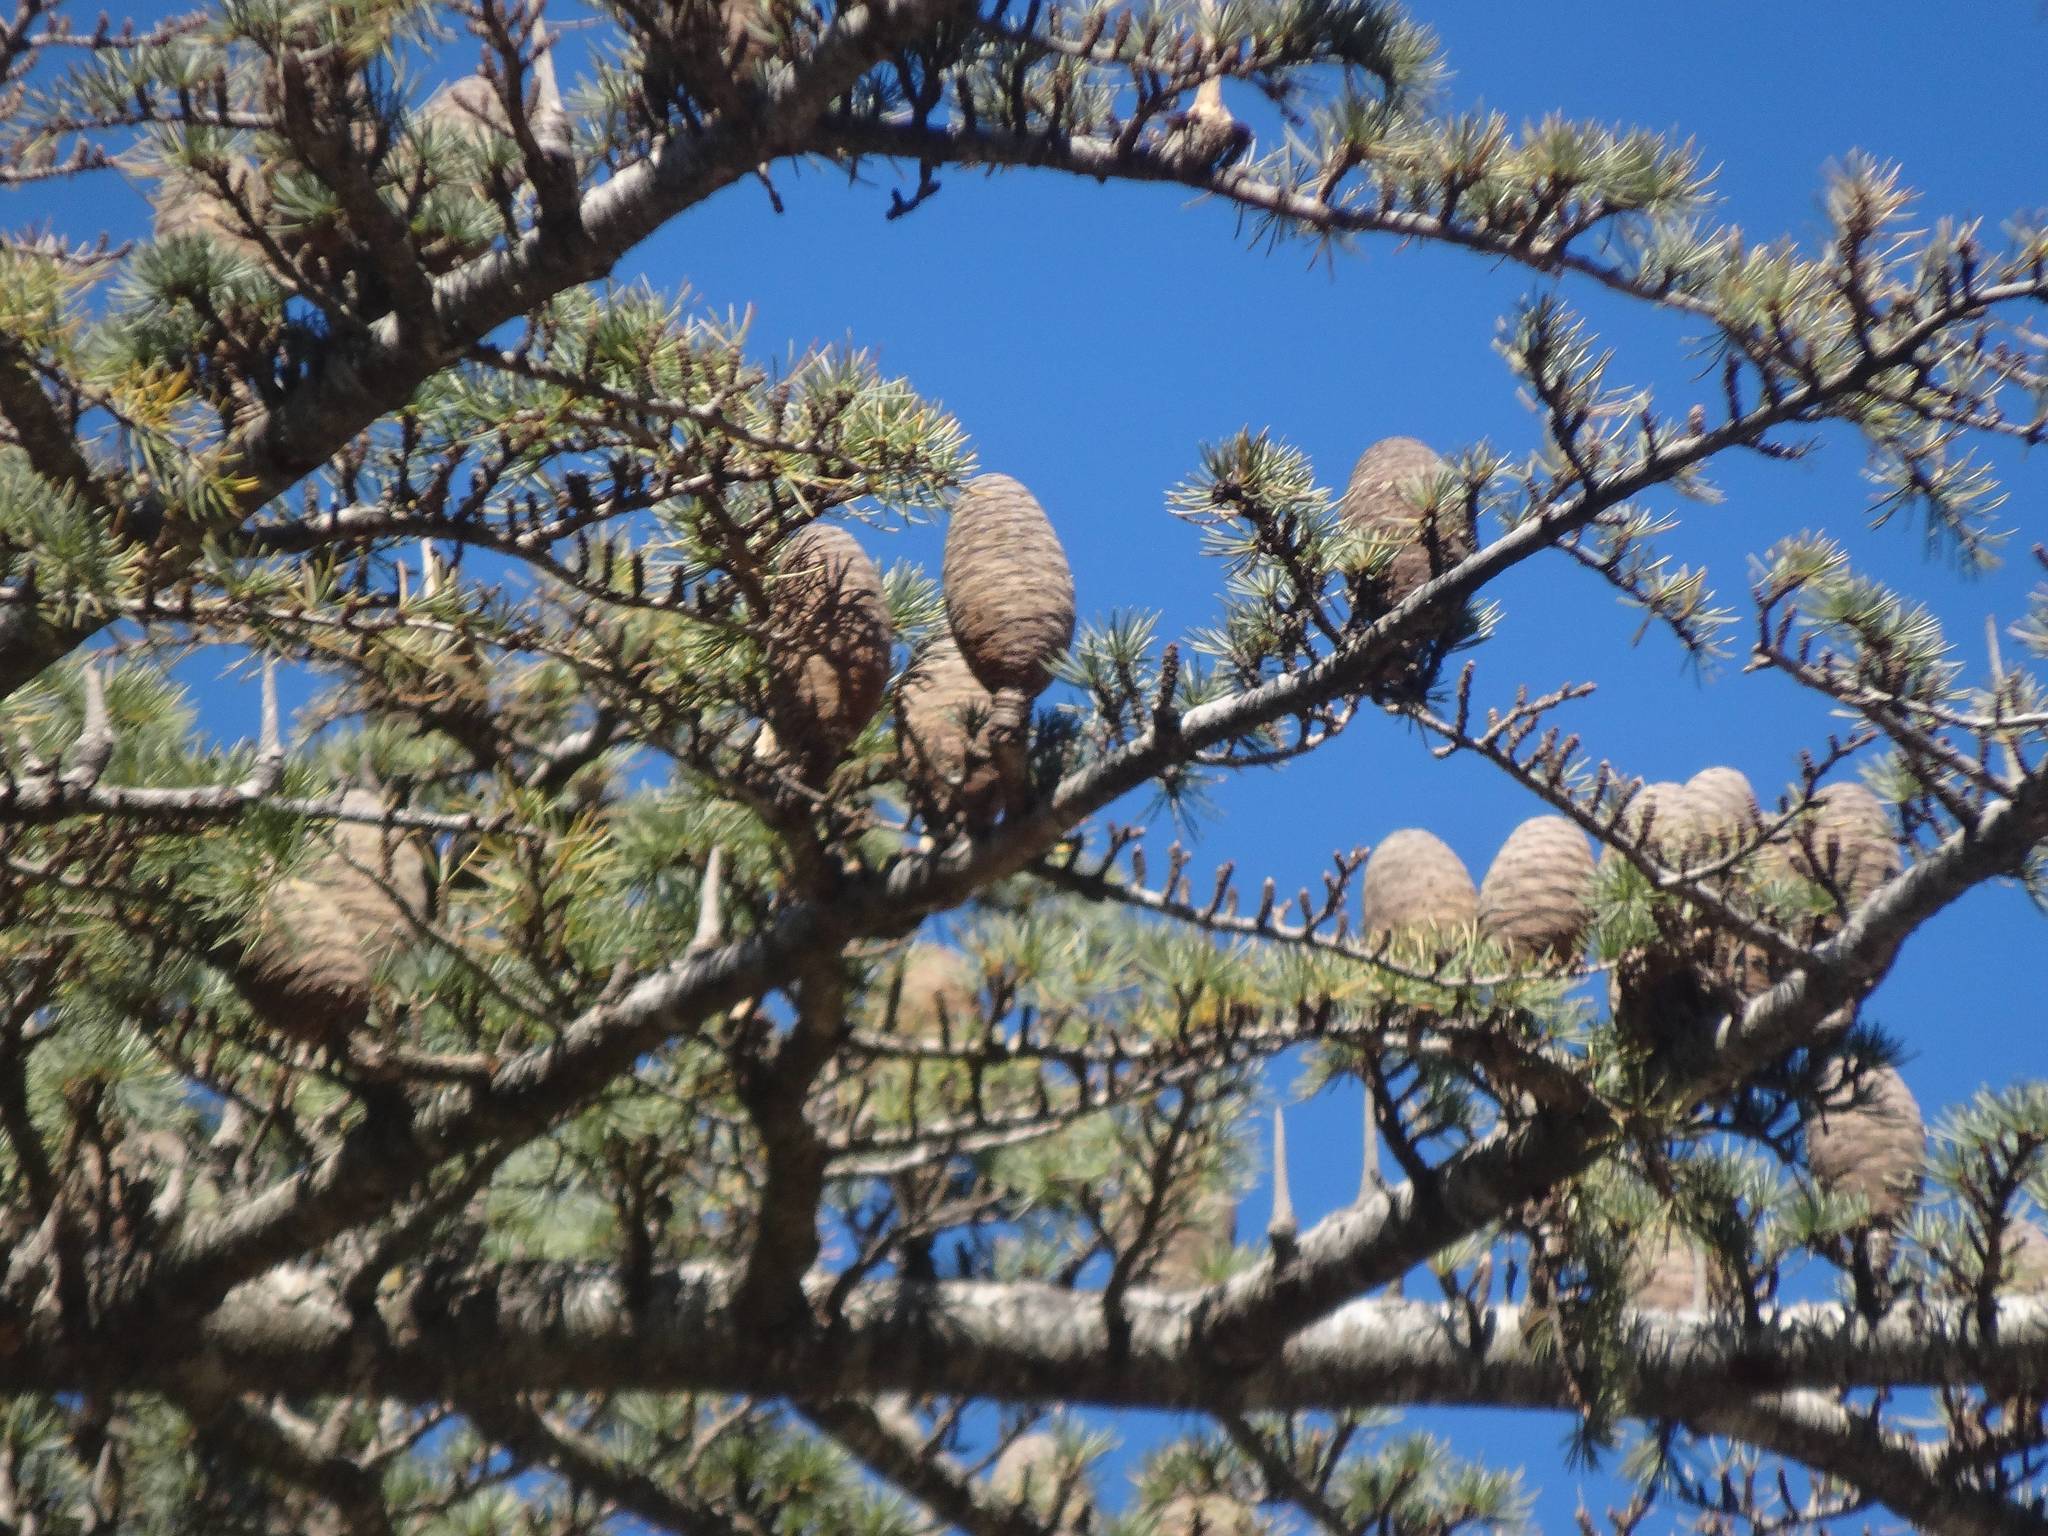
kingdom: Plantae
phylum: Tracheophyta
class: Pinopsida
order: Pinales
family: Pinaceae
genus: Cedrus
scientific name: Cedrus libani
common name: Cedar-of-lebanon
